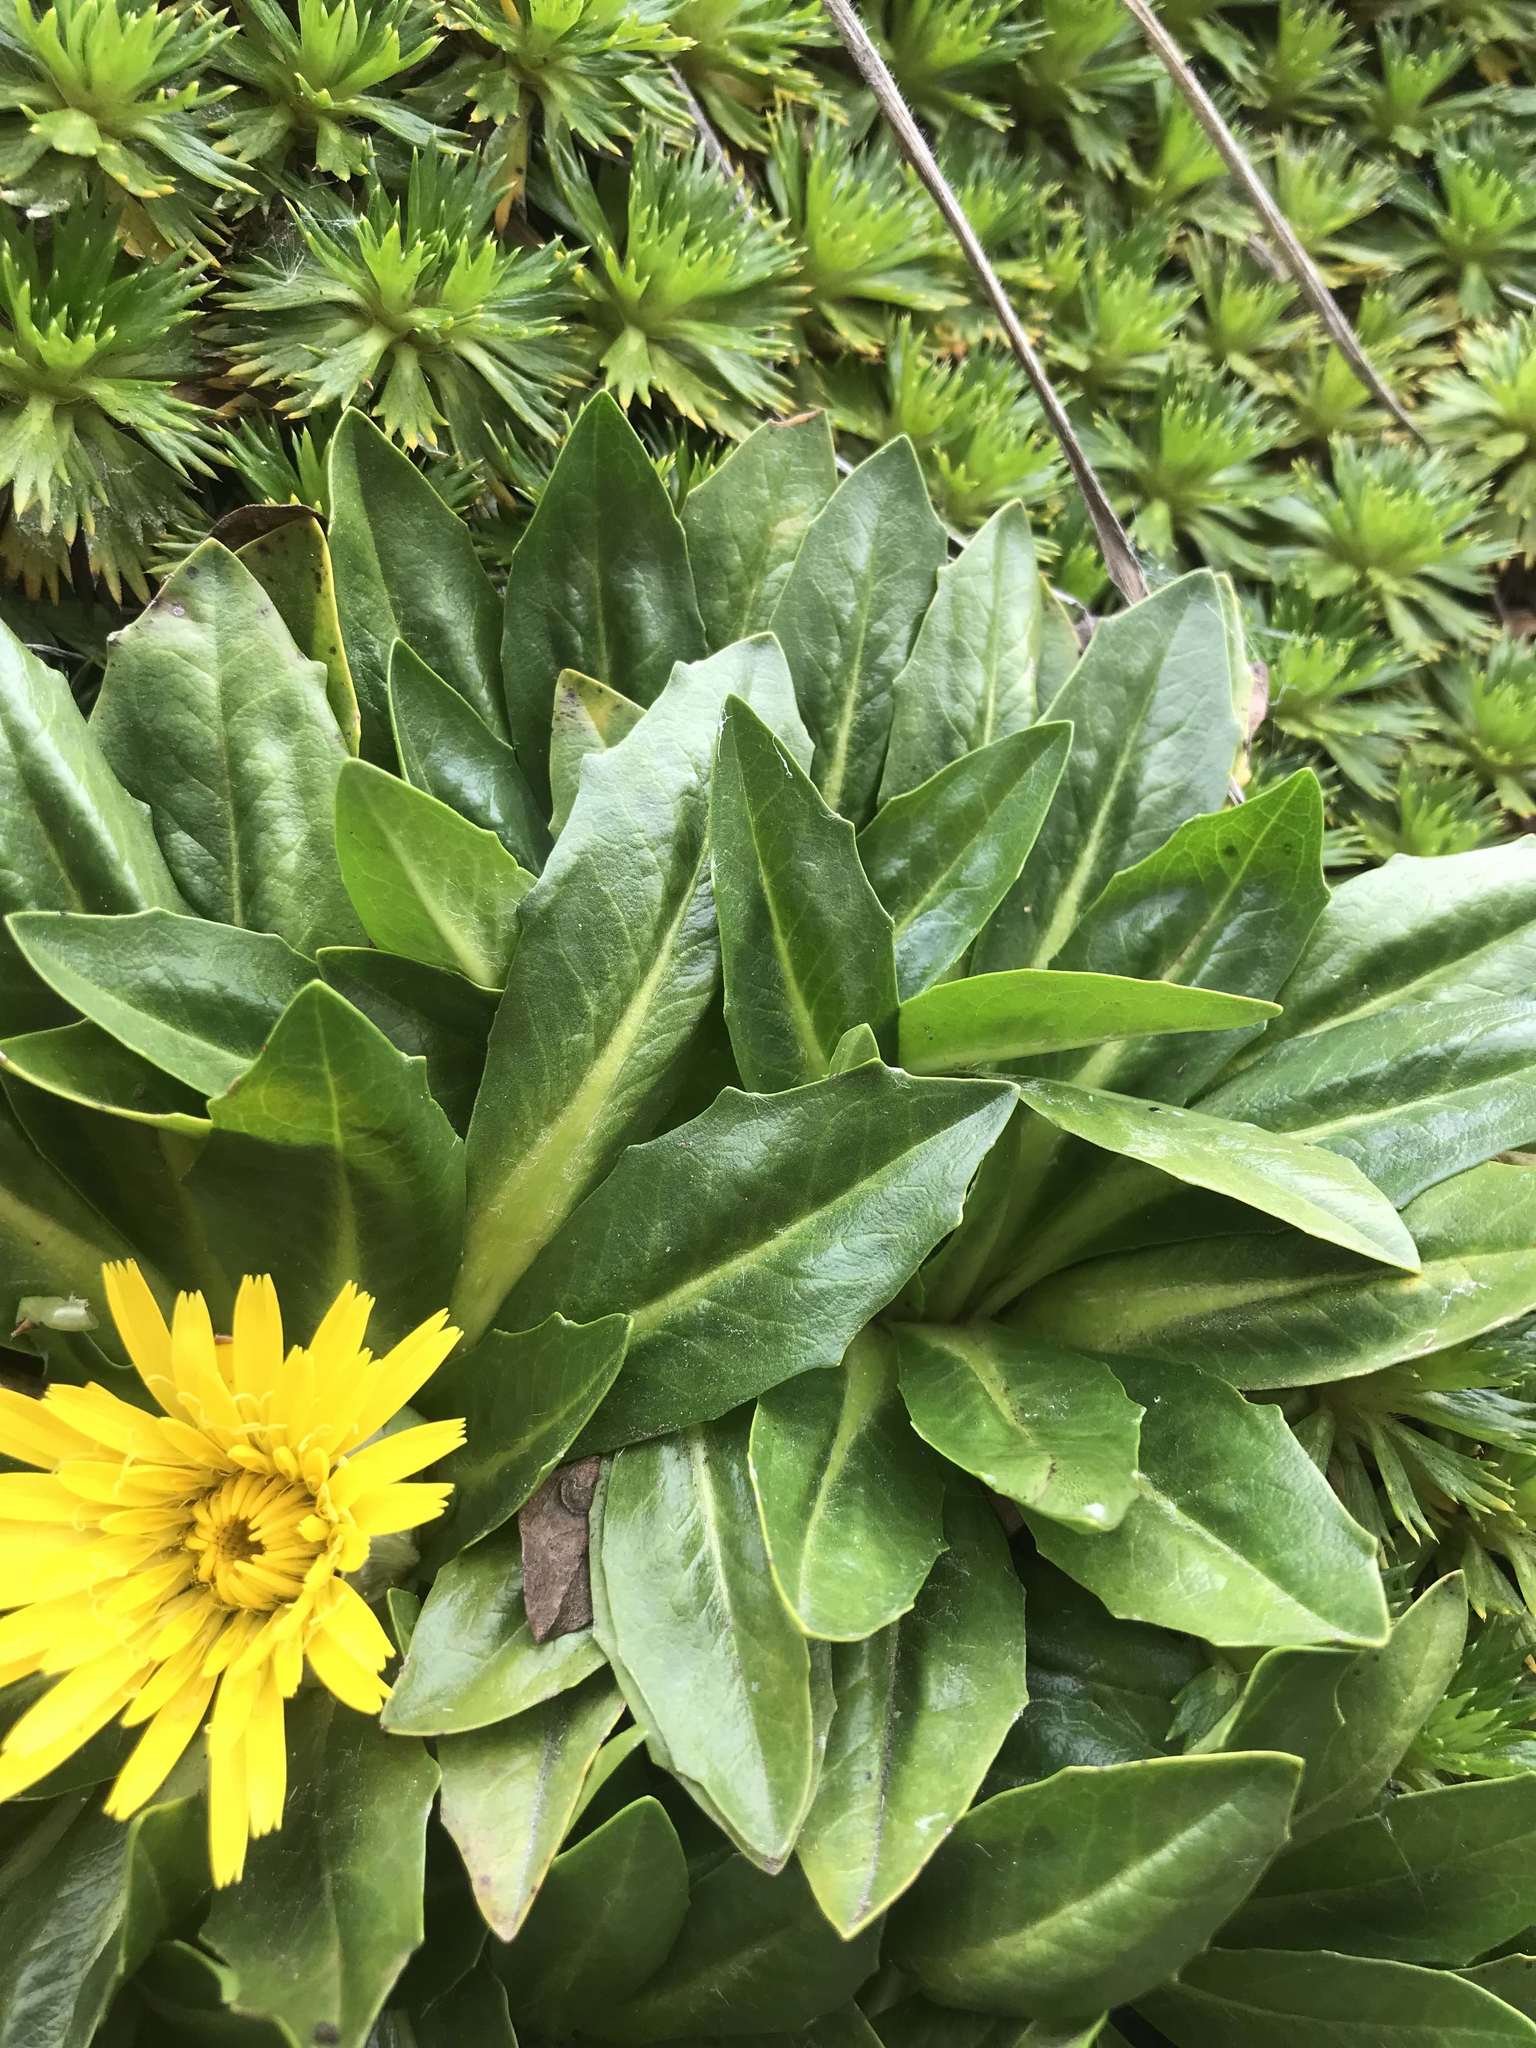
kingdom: Plantae
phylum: Tracheophyta
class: Magnoliopsida
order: Asterales
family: Asteraceae
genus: Hypochaeris
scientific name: Hypochaeris sessiliflora
